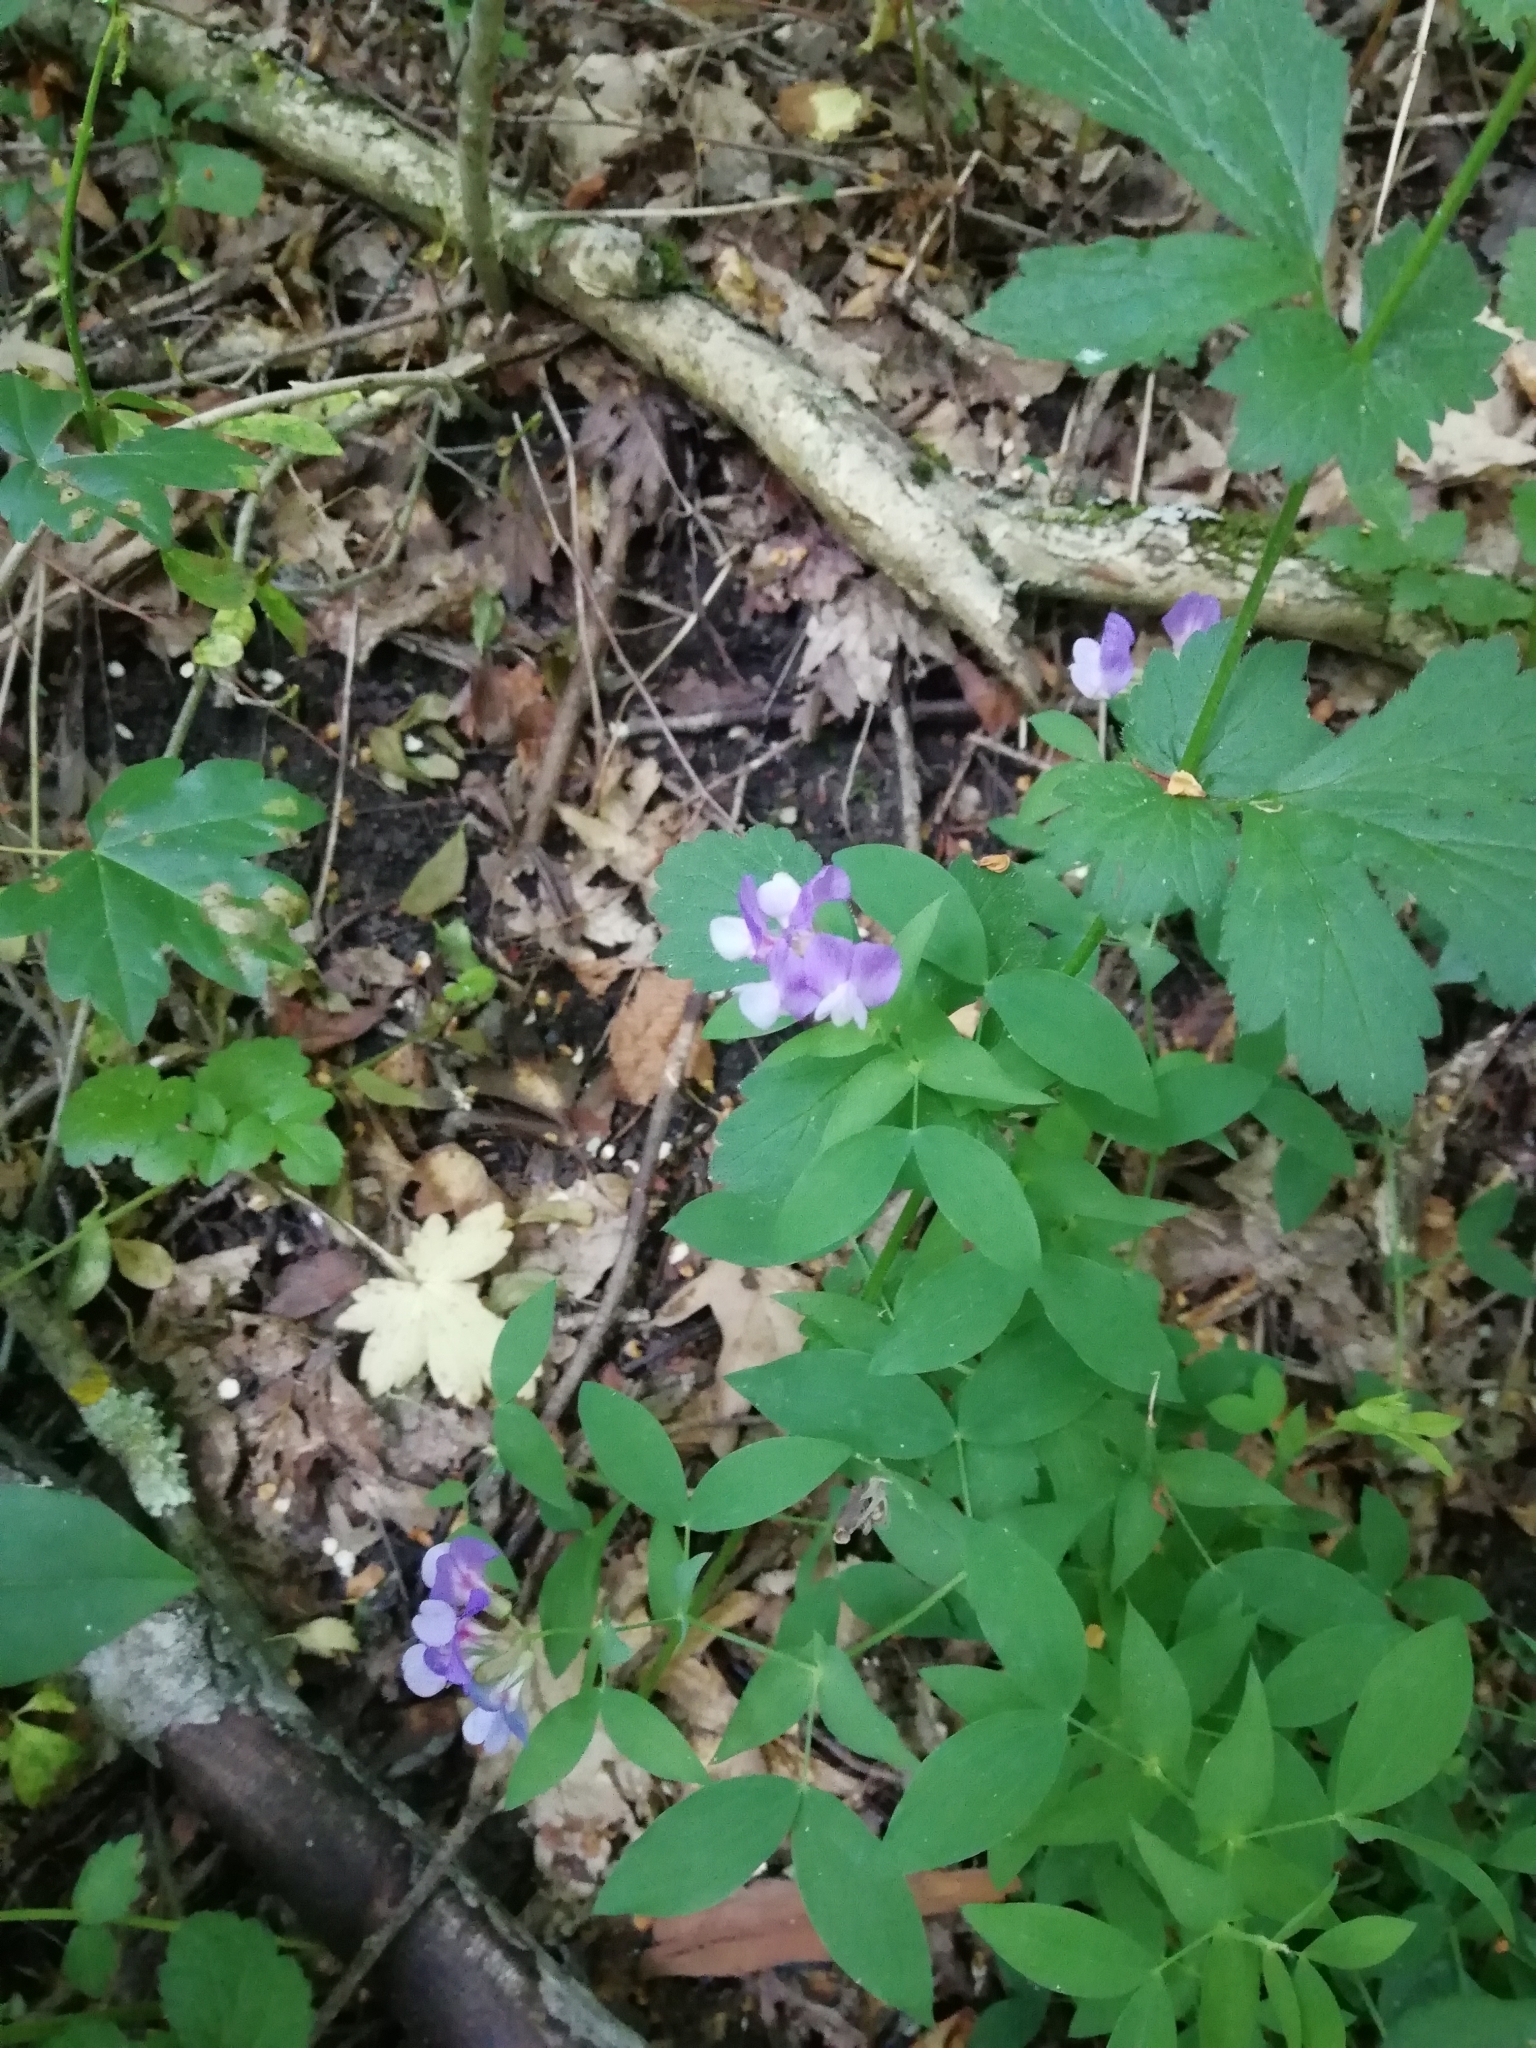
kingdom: Plantae
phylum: Tracheophyta
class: Magnoliopsida
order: Fabales
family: Fabaceae
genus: Lathyrus
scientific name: Lathyrus laxiflorus
